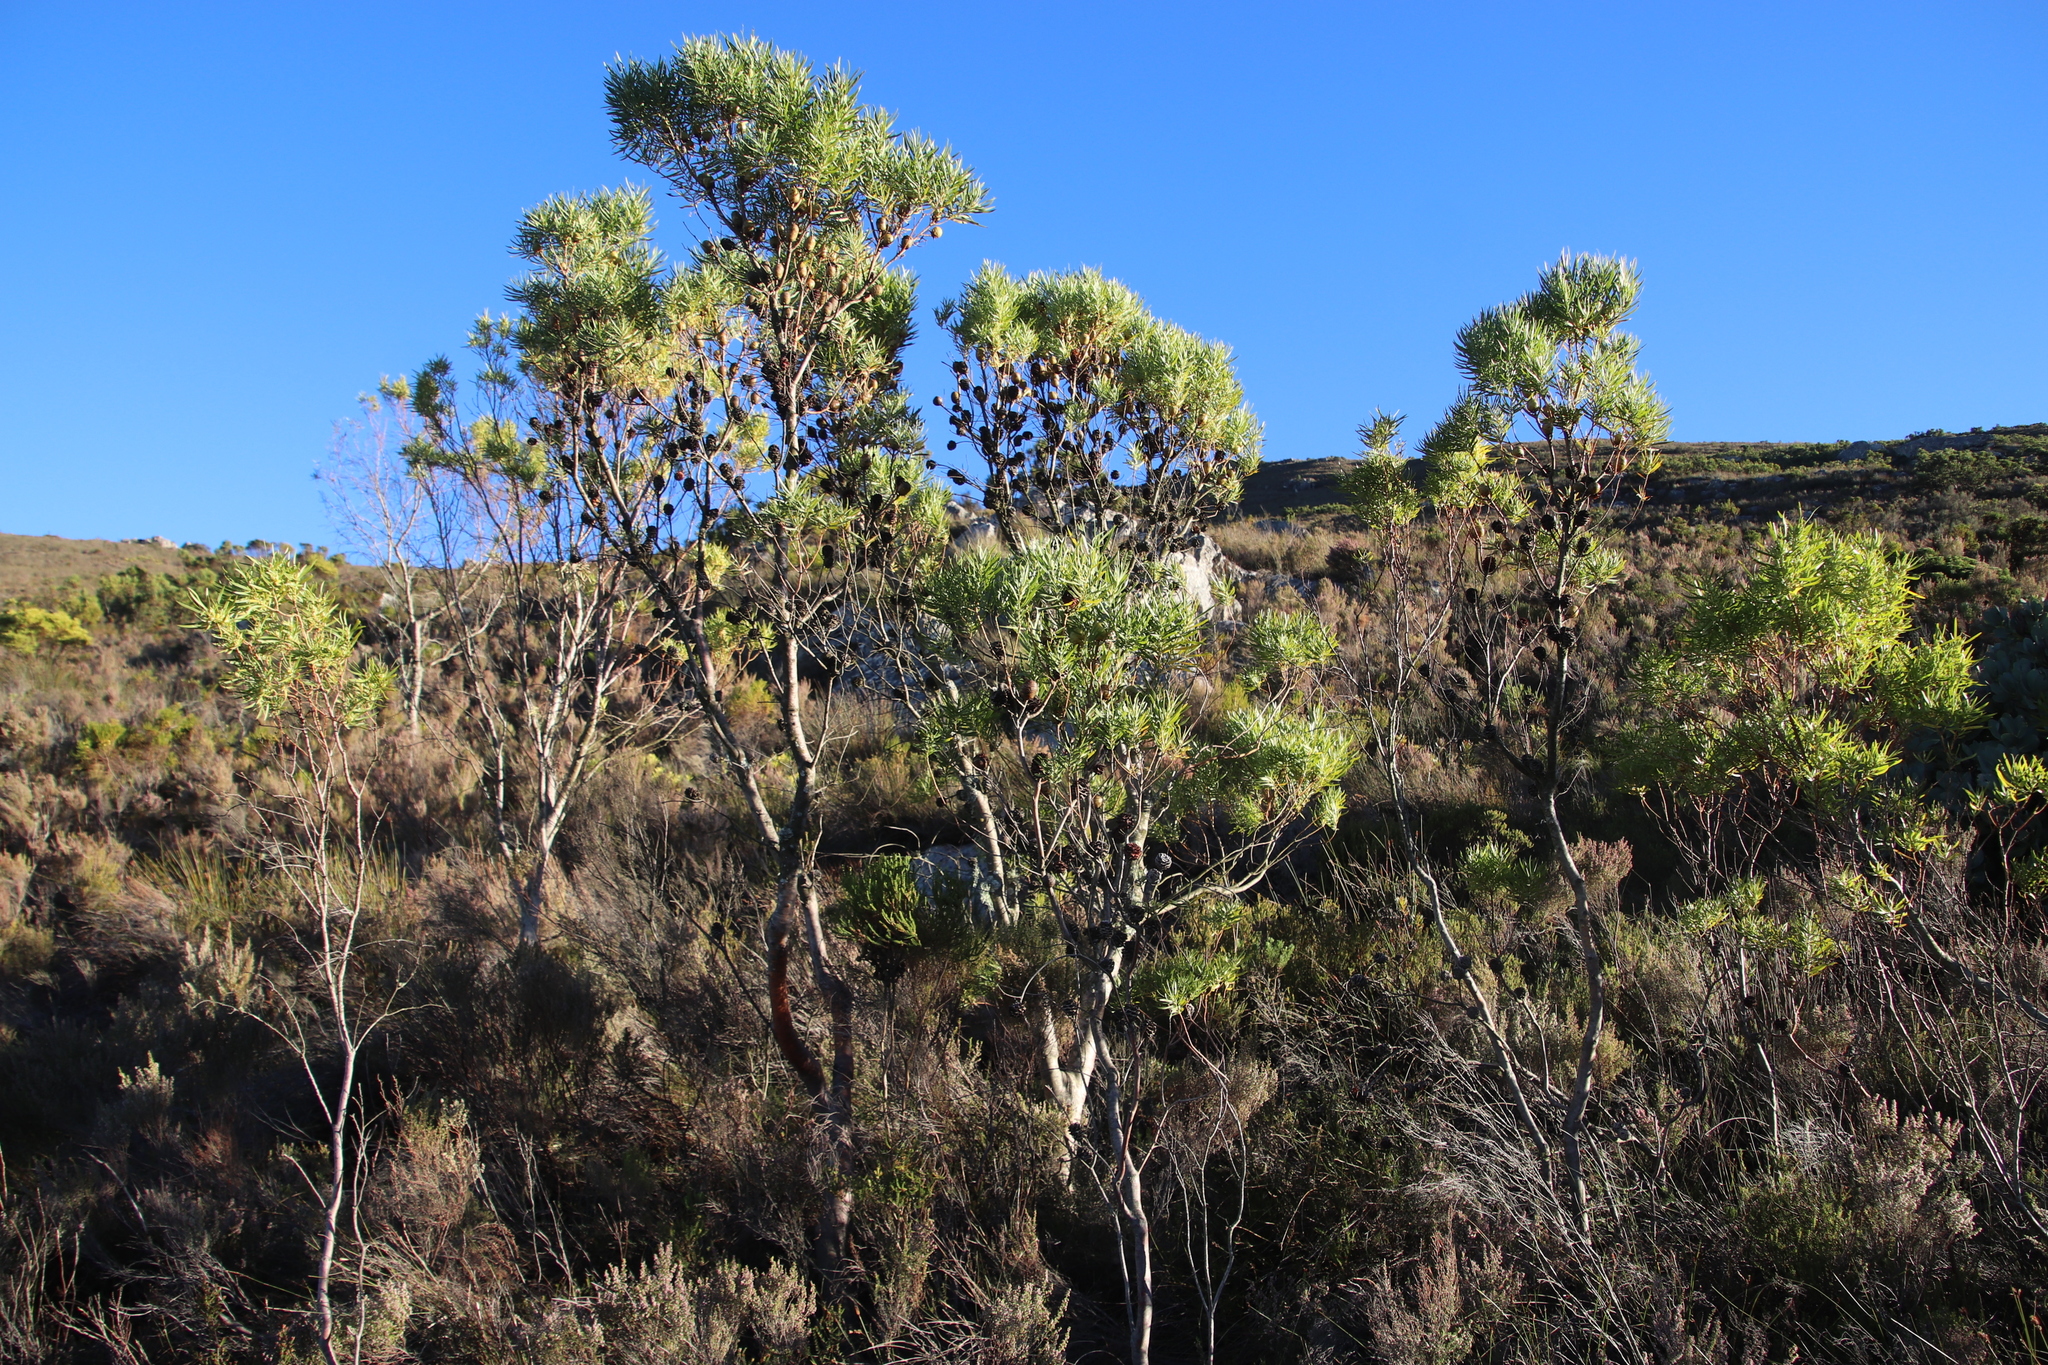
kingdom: Plantae
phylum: Tracheophyta
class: Magnoliopsida
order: Proteales
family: Proteaceae
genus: Leucadendron
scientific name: Leucadendron salicifolium
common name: Common stream conebush
